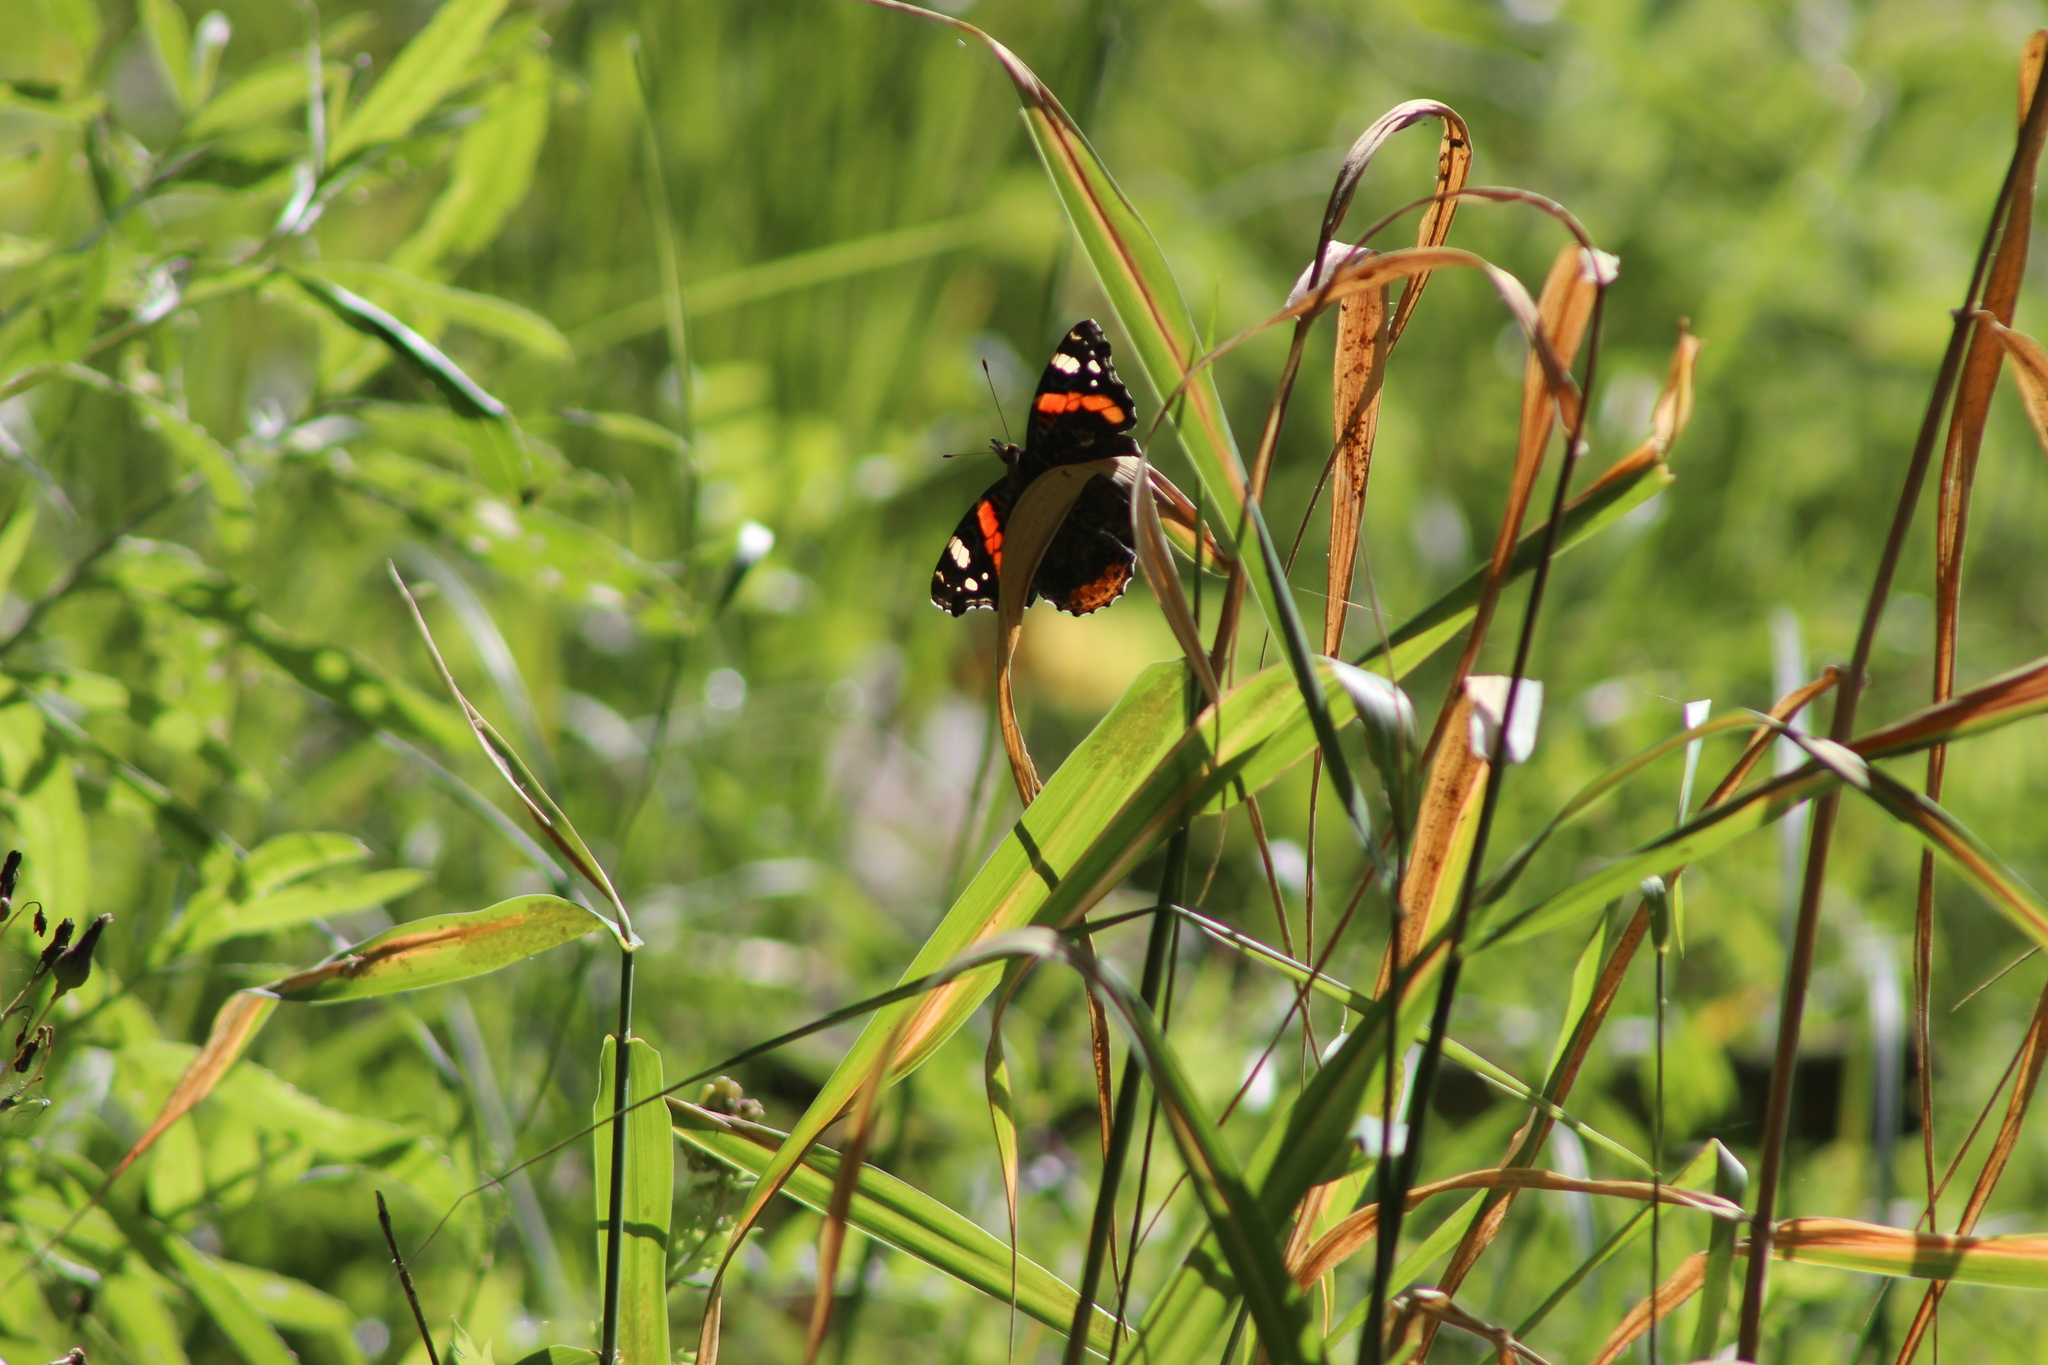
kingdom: Animalia
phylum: Arthropoda
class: Insecta
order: Lepidoptera
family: Nymphalidae
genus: Vanessa
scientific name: Vanessa atalanta
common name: Red admiral
